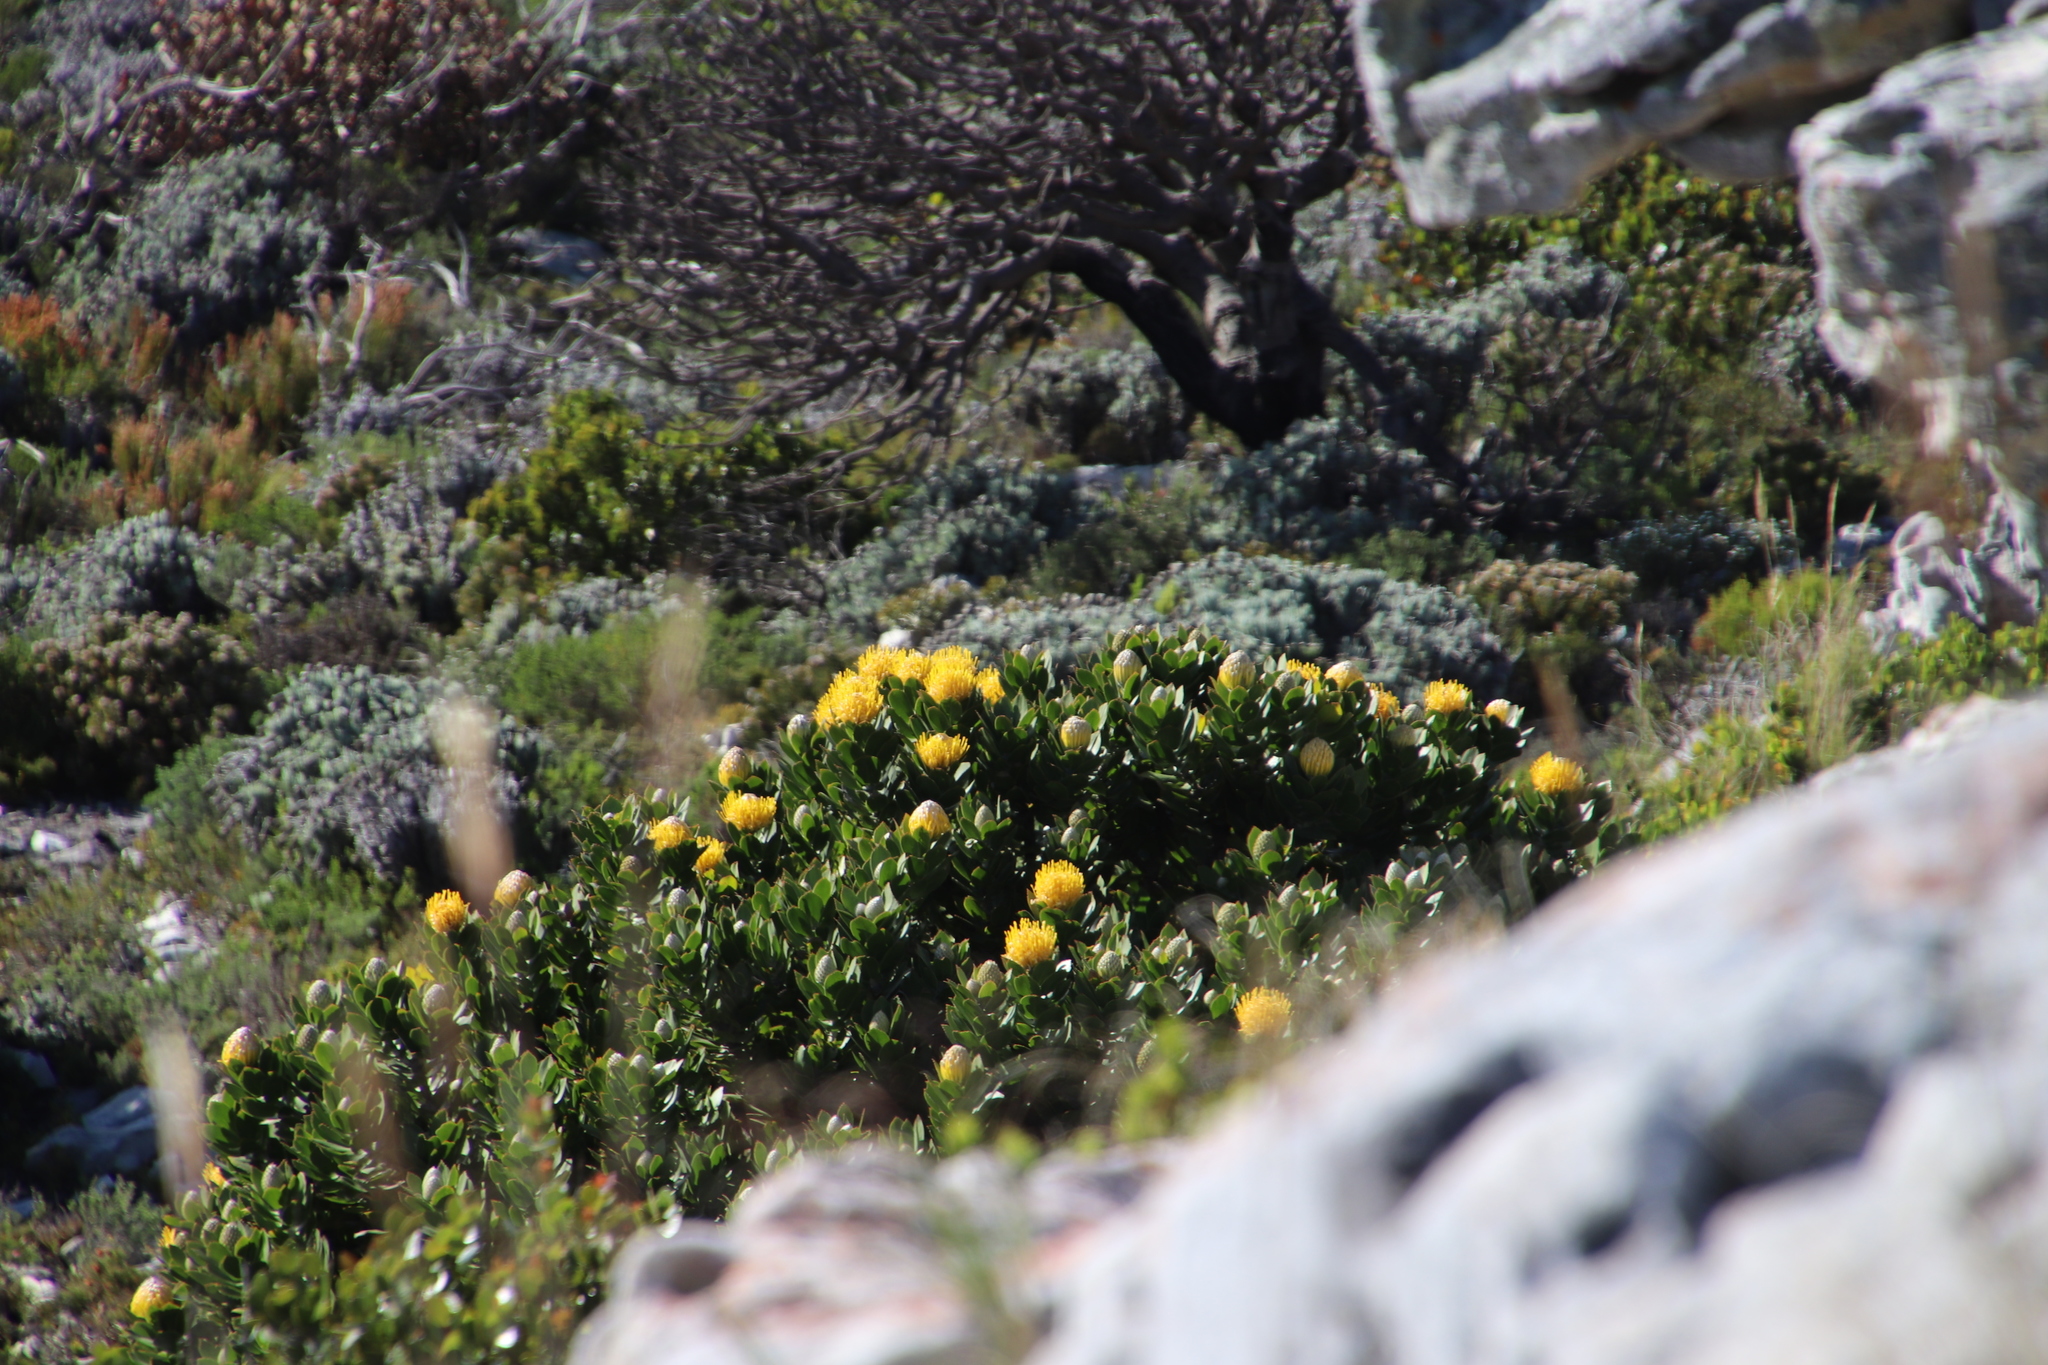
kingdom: Plantae
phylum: Tracheophyta
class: Magnoliopsida
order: Proteales
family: Proteaceae
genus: Leucospermum
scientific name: Leucospermum conocarpodendron
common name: Tree pincushion
